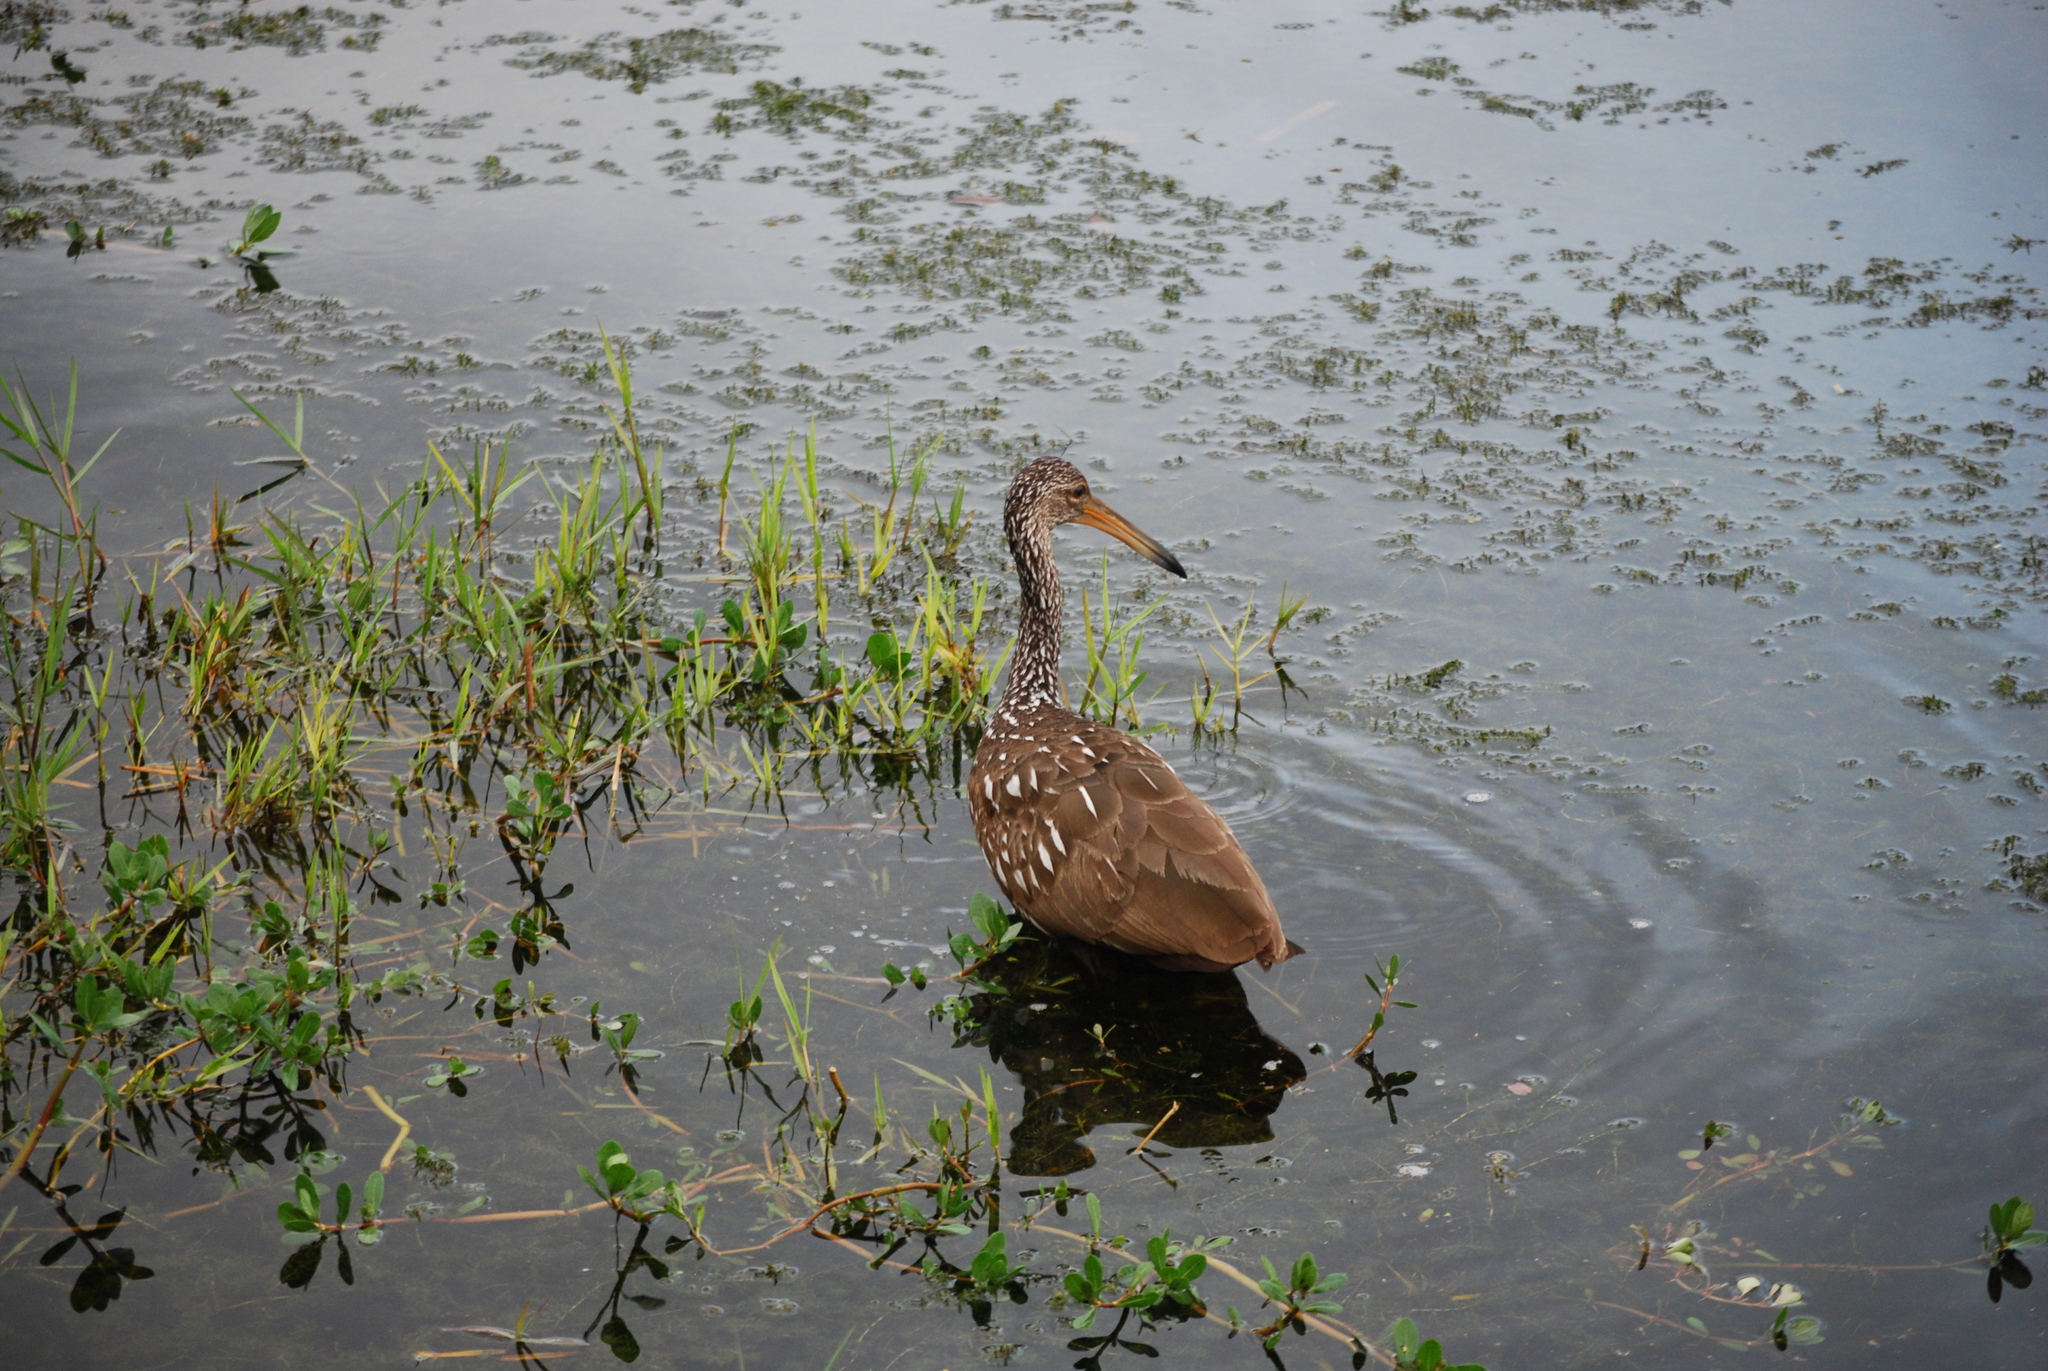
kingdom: Animalia
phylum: Chordata
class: Aves
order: Gruiformes
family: Aramidae
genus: Aramus
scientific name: Aramus guarauna
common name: Limpkin
